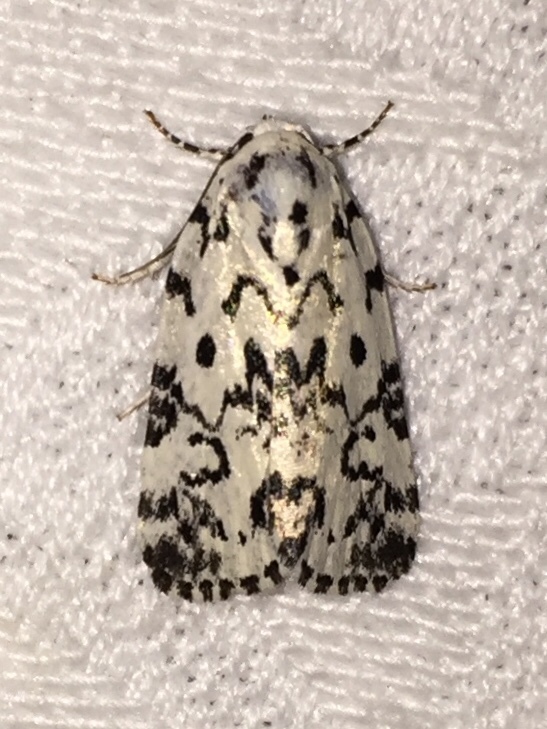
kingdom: Animalia
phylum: Arthropoda
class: Insecta
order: Lepidoptera
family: Noctuidae
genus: Polygrammate
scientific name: Polygrammate hebraeicum
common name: Hebrew moth
